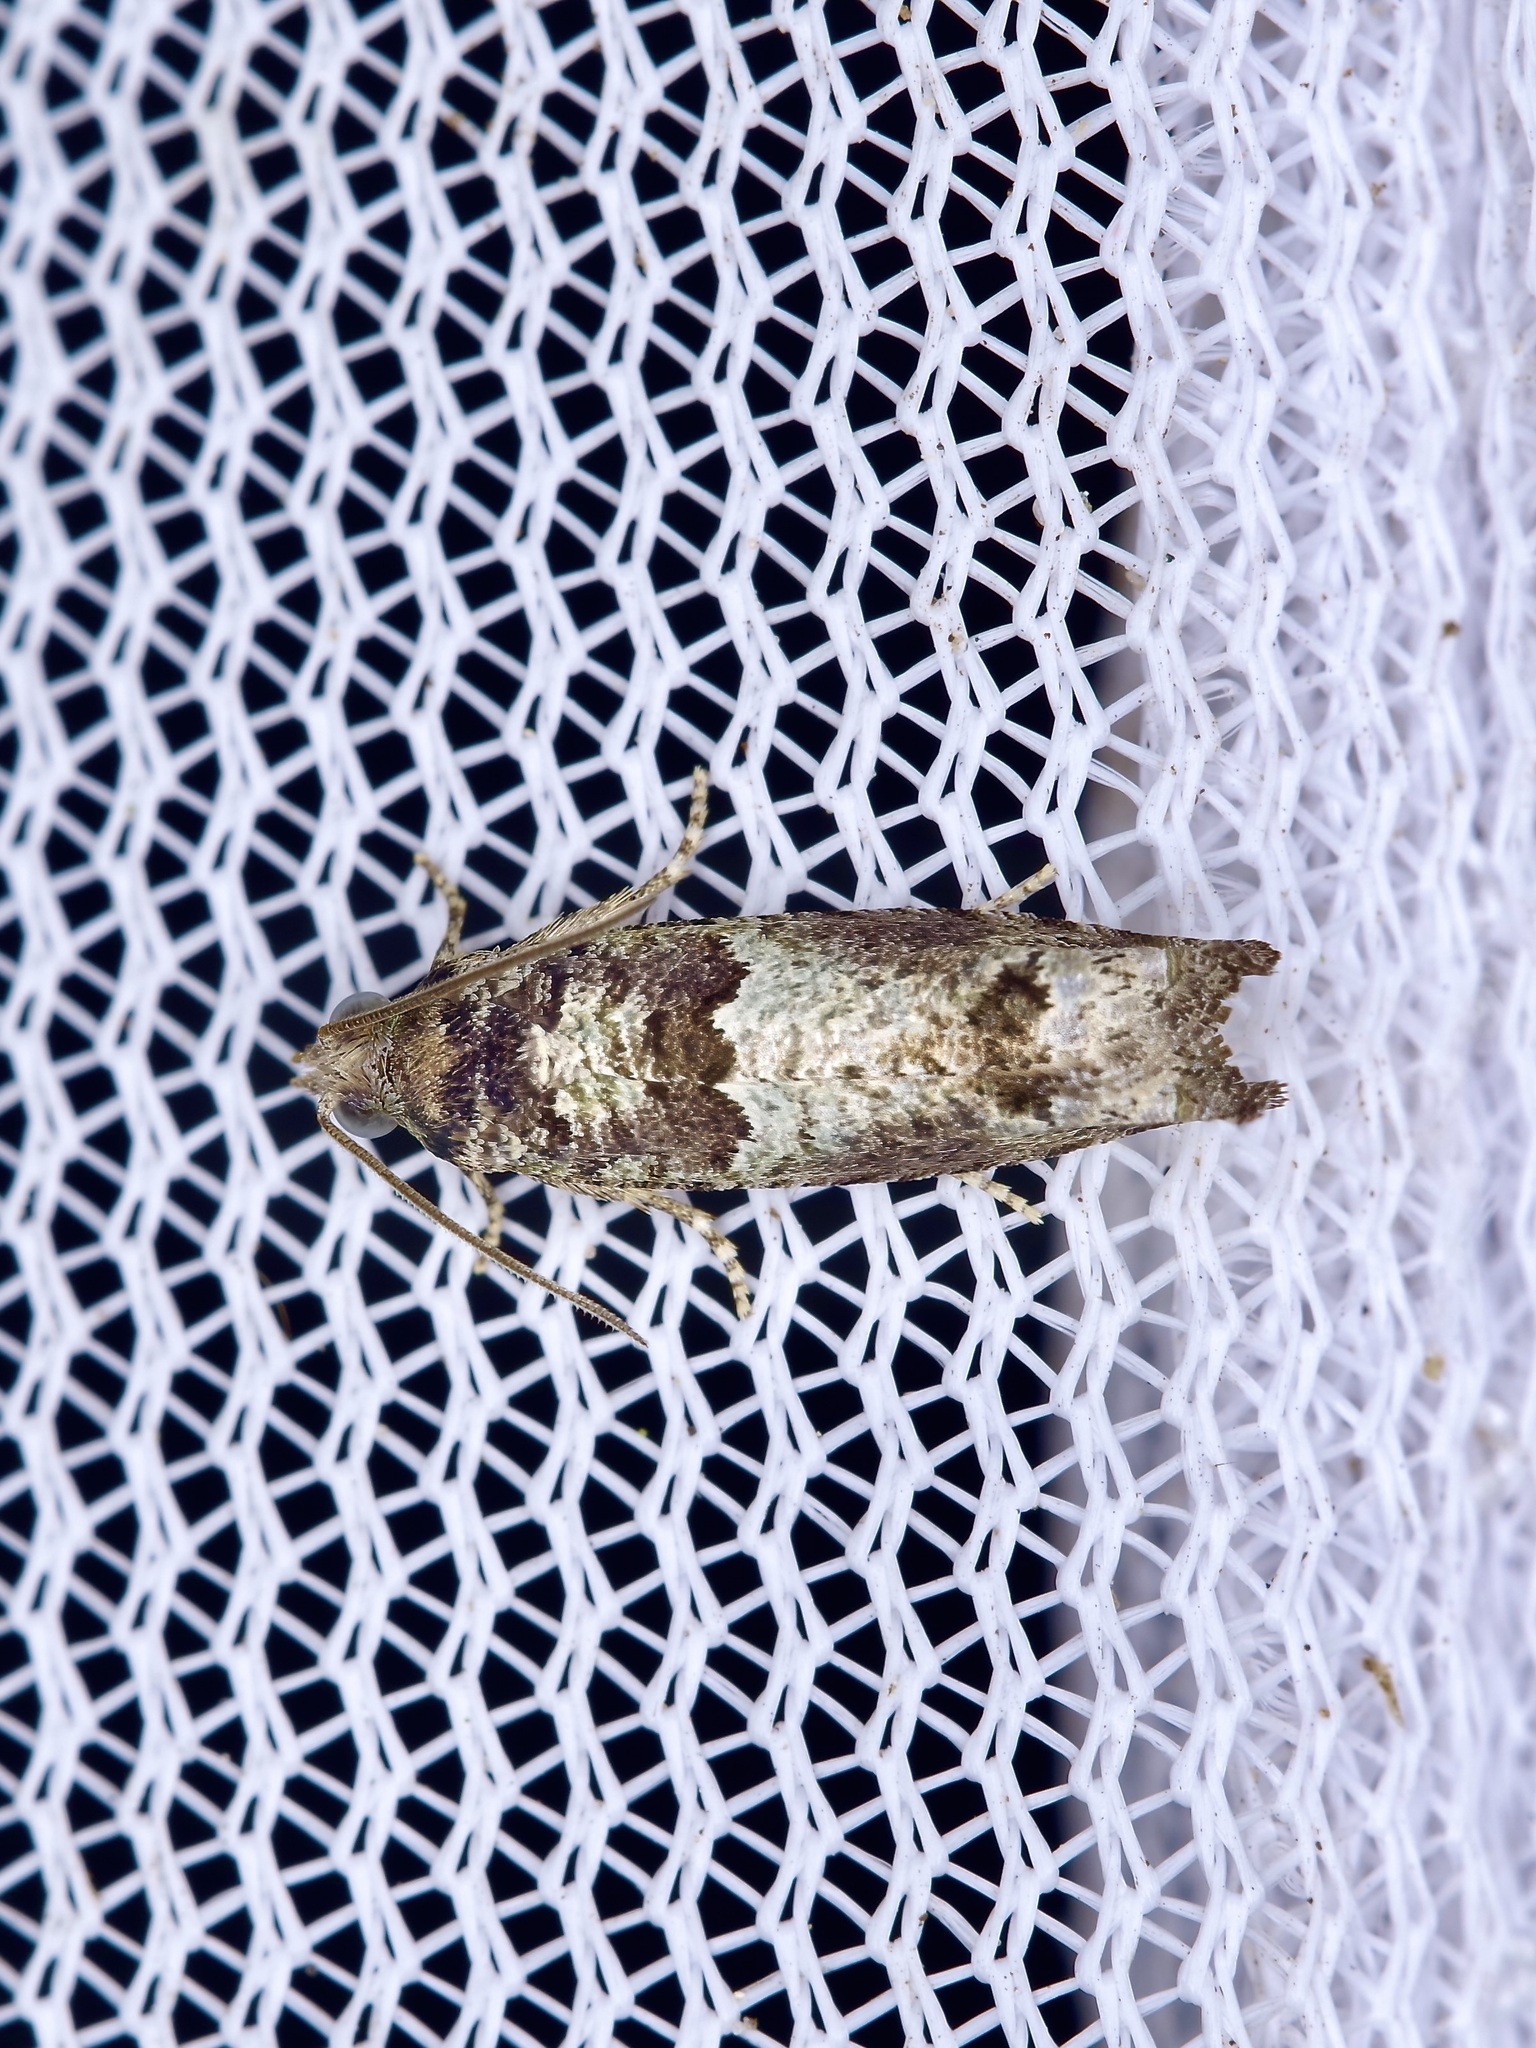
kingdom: Animalia
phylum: Arthropoda
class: Insecta
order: Lepidoptera
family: Tortricidae
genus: Pseudexentera
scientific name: Pseudexentera knudsoni
